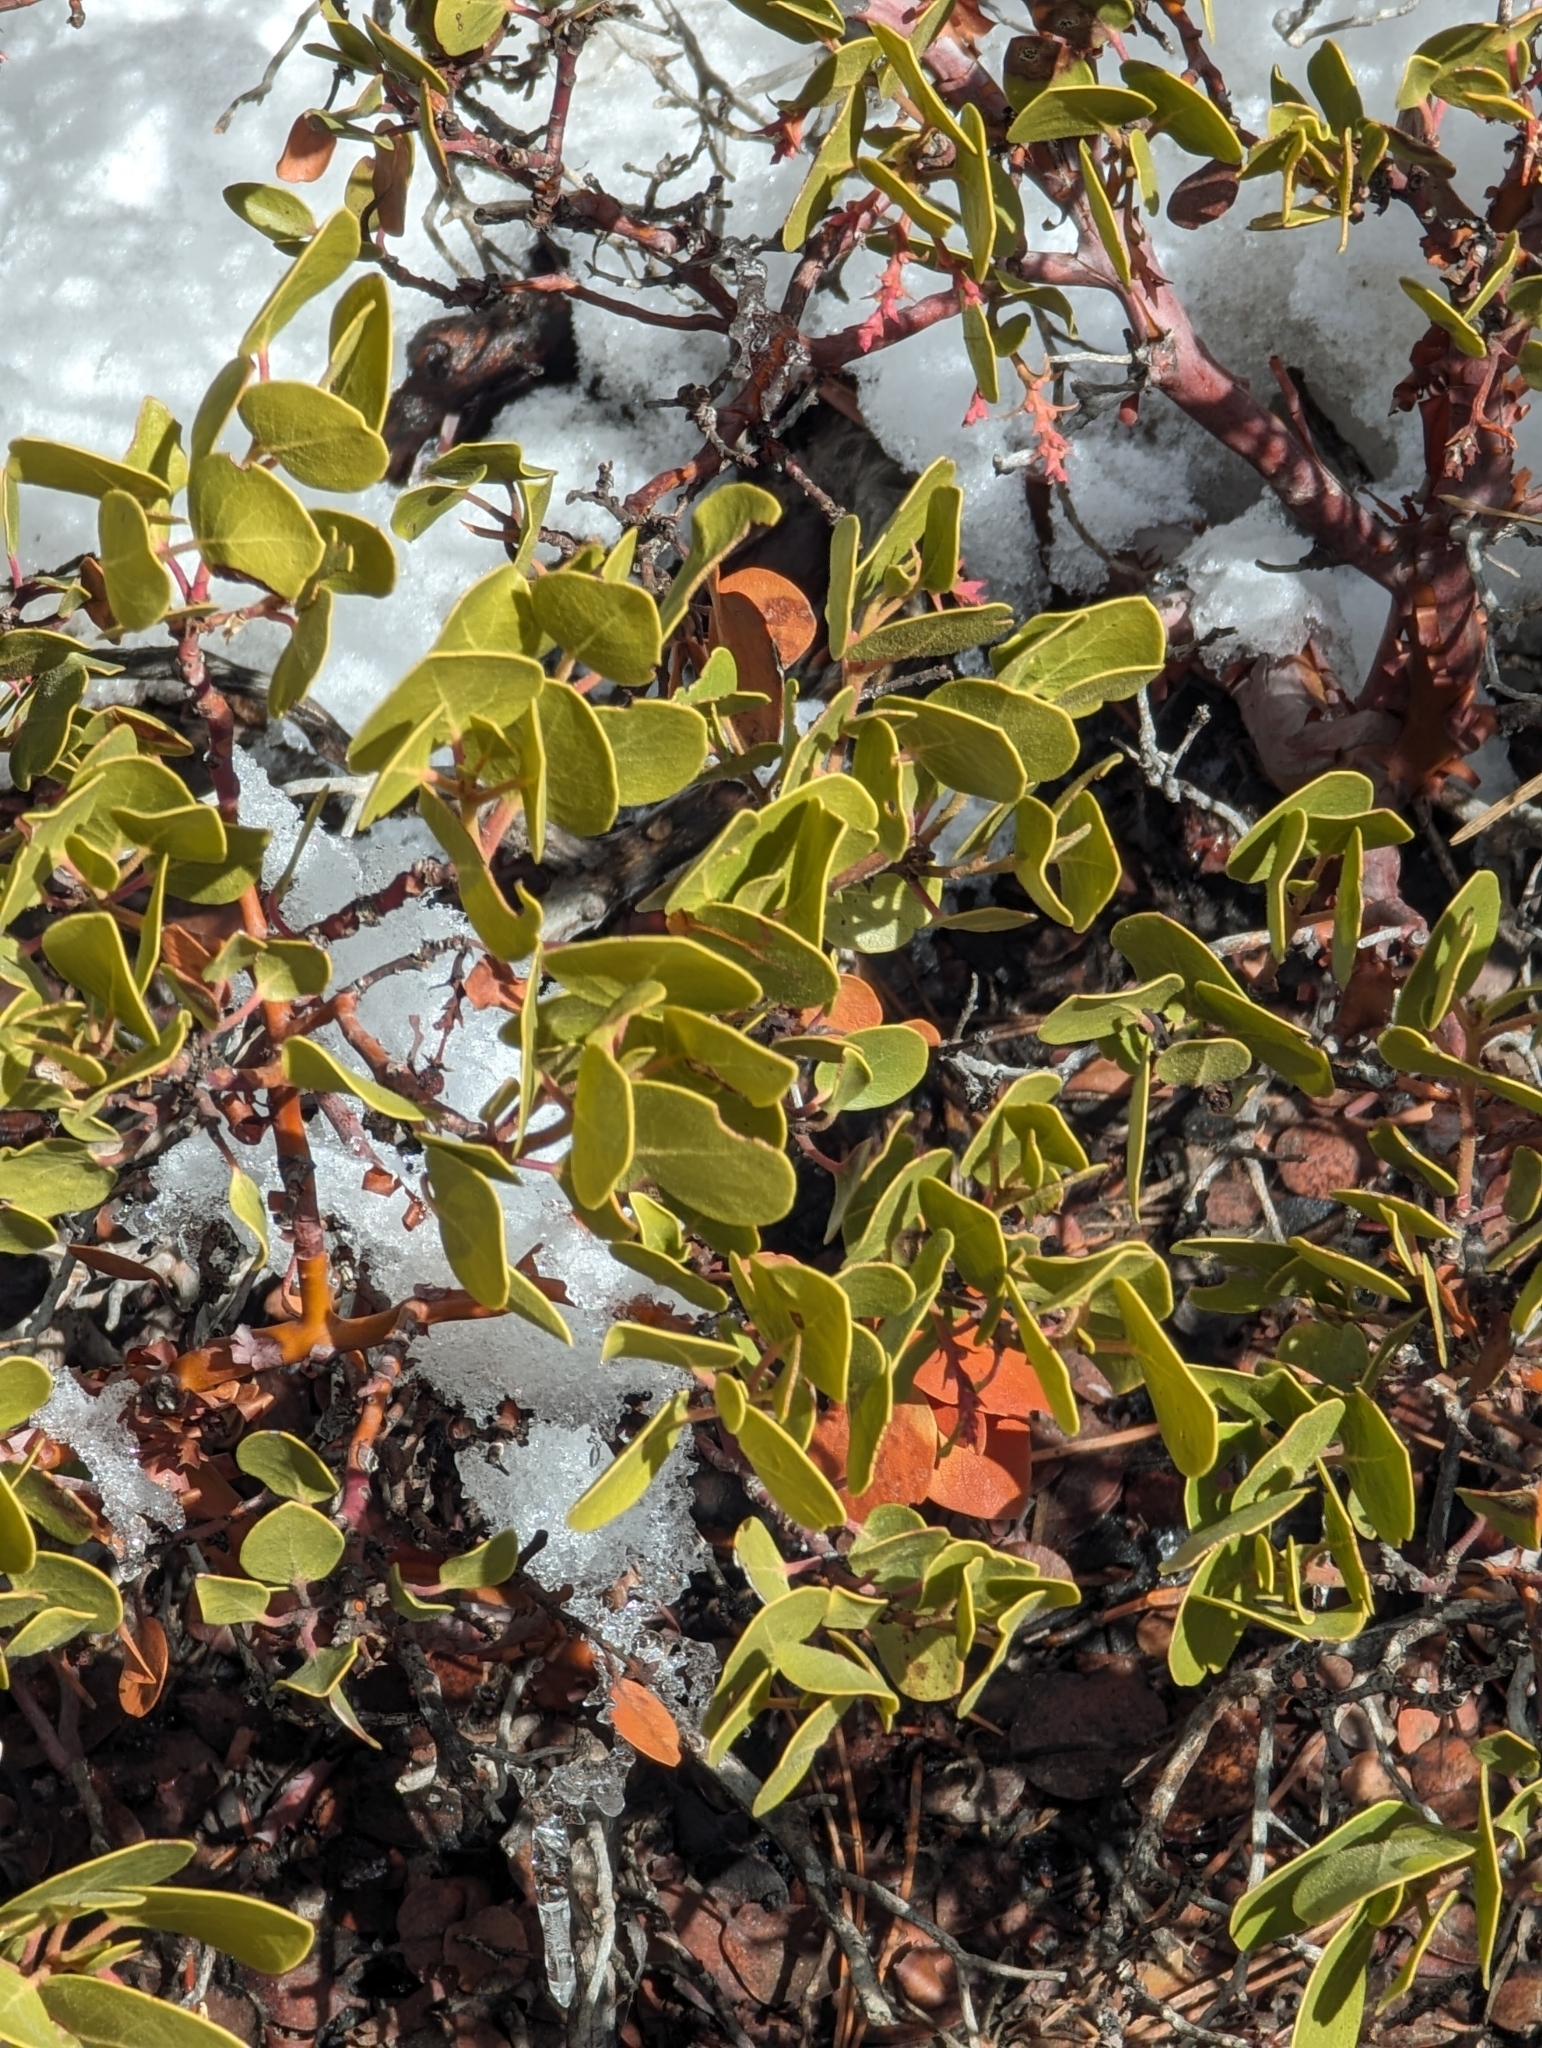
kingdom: Plantae
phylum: Tracheophyta
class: Magnoliopsida
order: Ericales
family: Ericaceae
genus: Arctostaphylos
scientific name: Arctostaphylos patula
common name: Green-leaf manzanita
